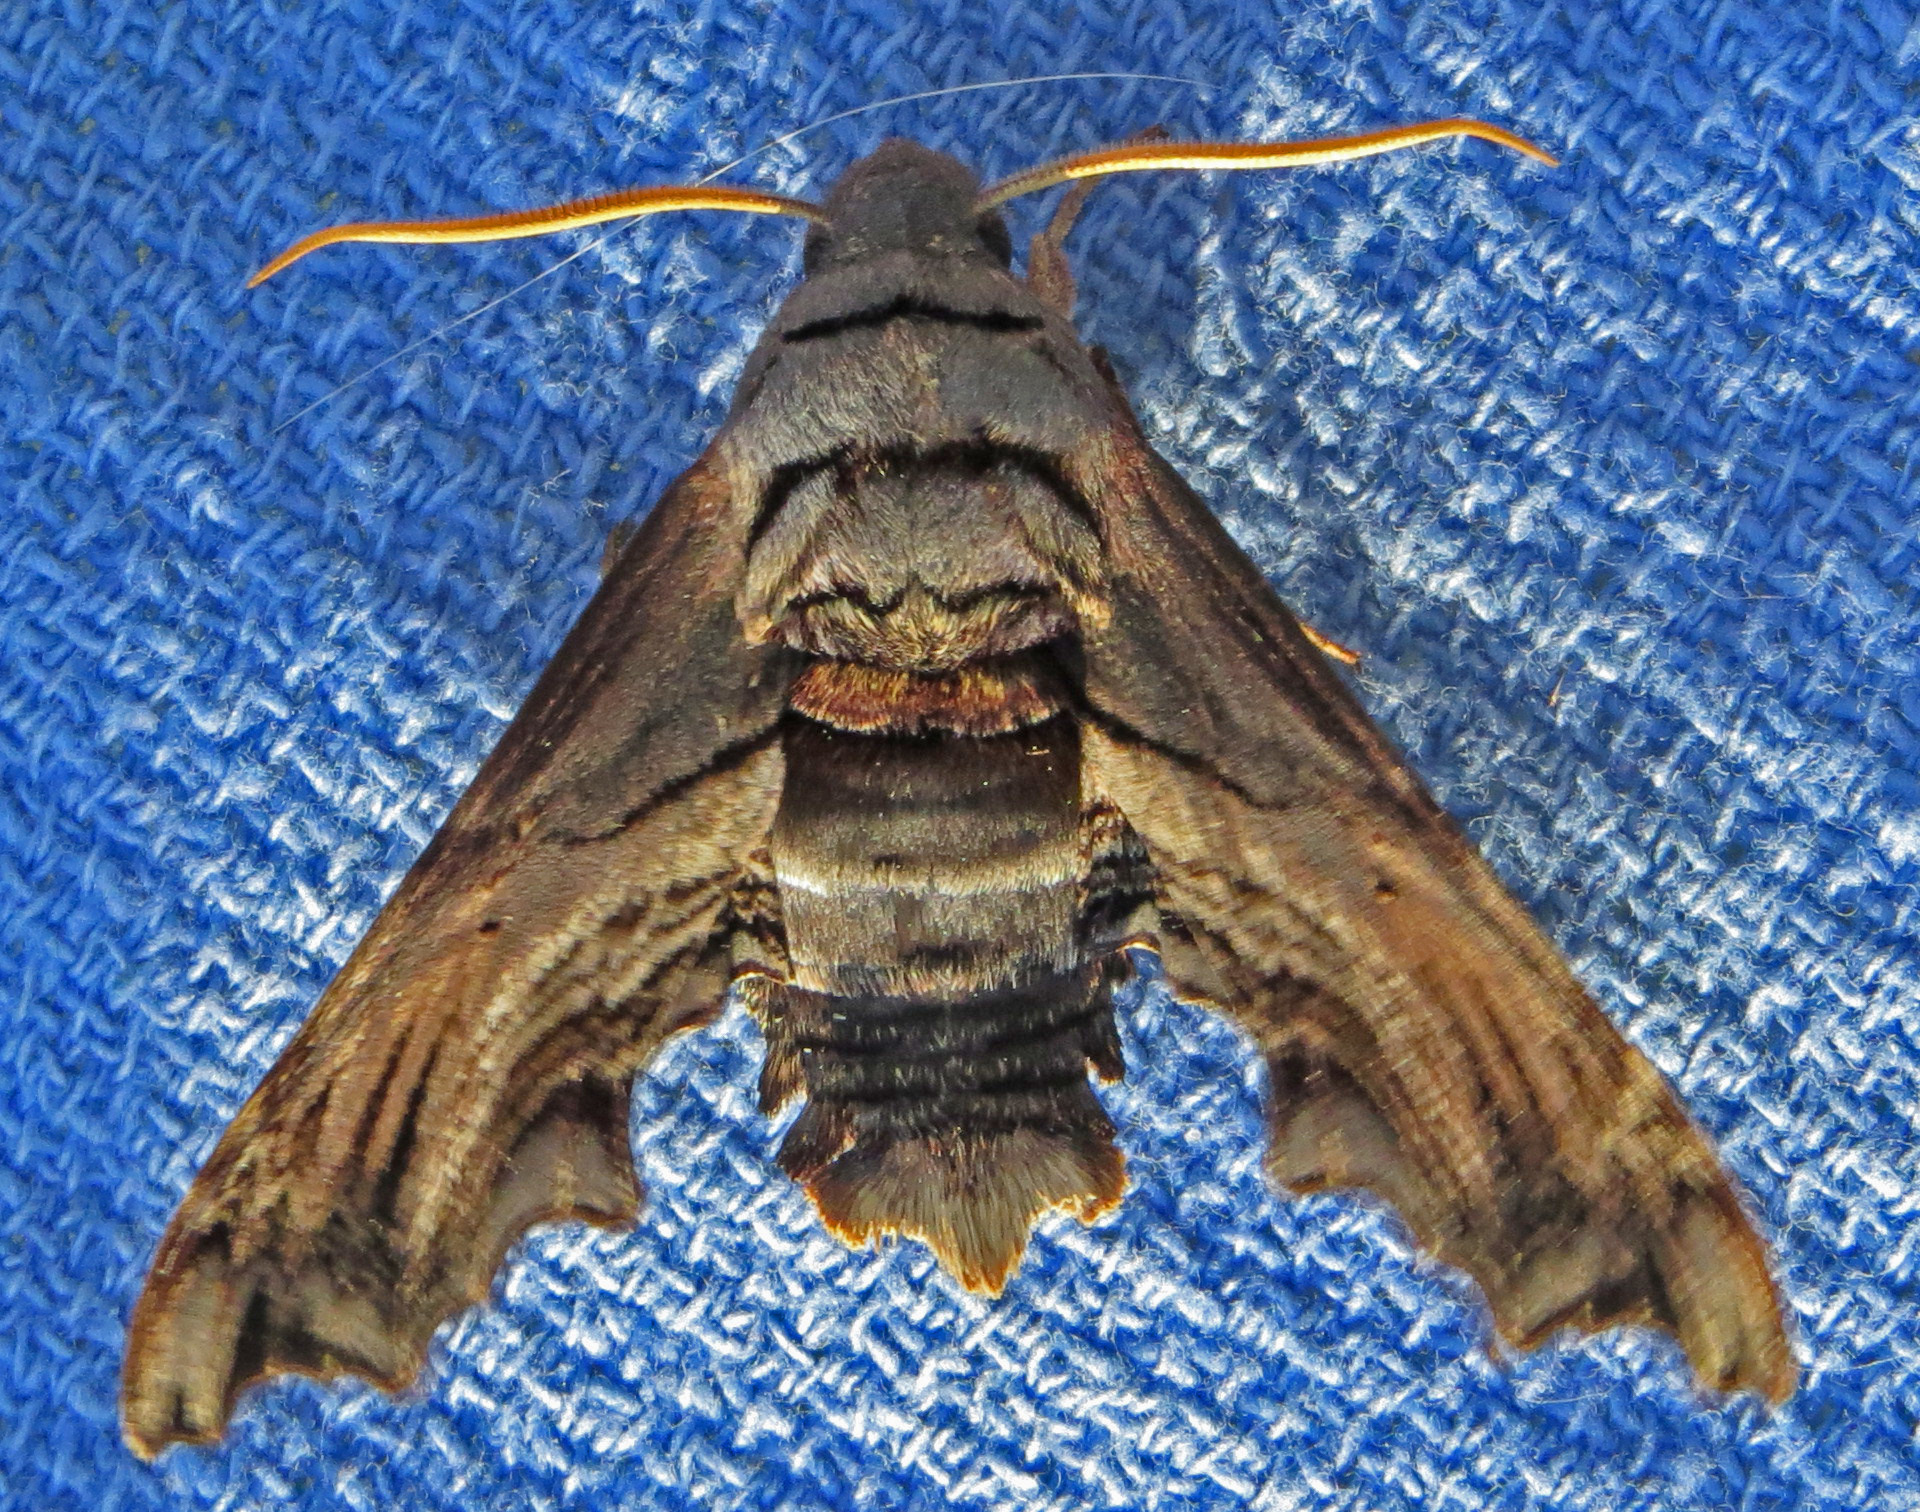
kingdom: Animalia
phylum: Arthropoda
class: Insecta
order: Lepidoptera
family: Sphingidae
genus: Sphecodina
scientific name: Sphecodina abbottii
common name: Abbott's sphinx
